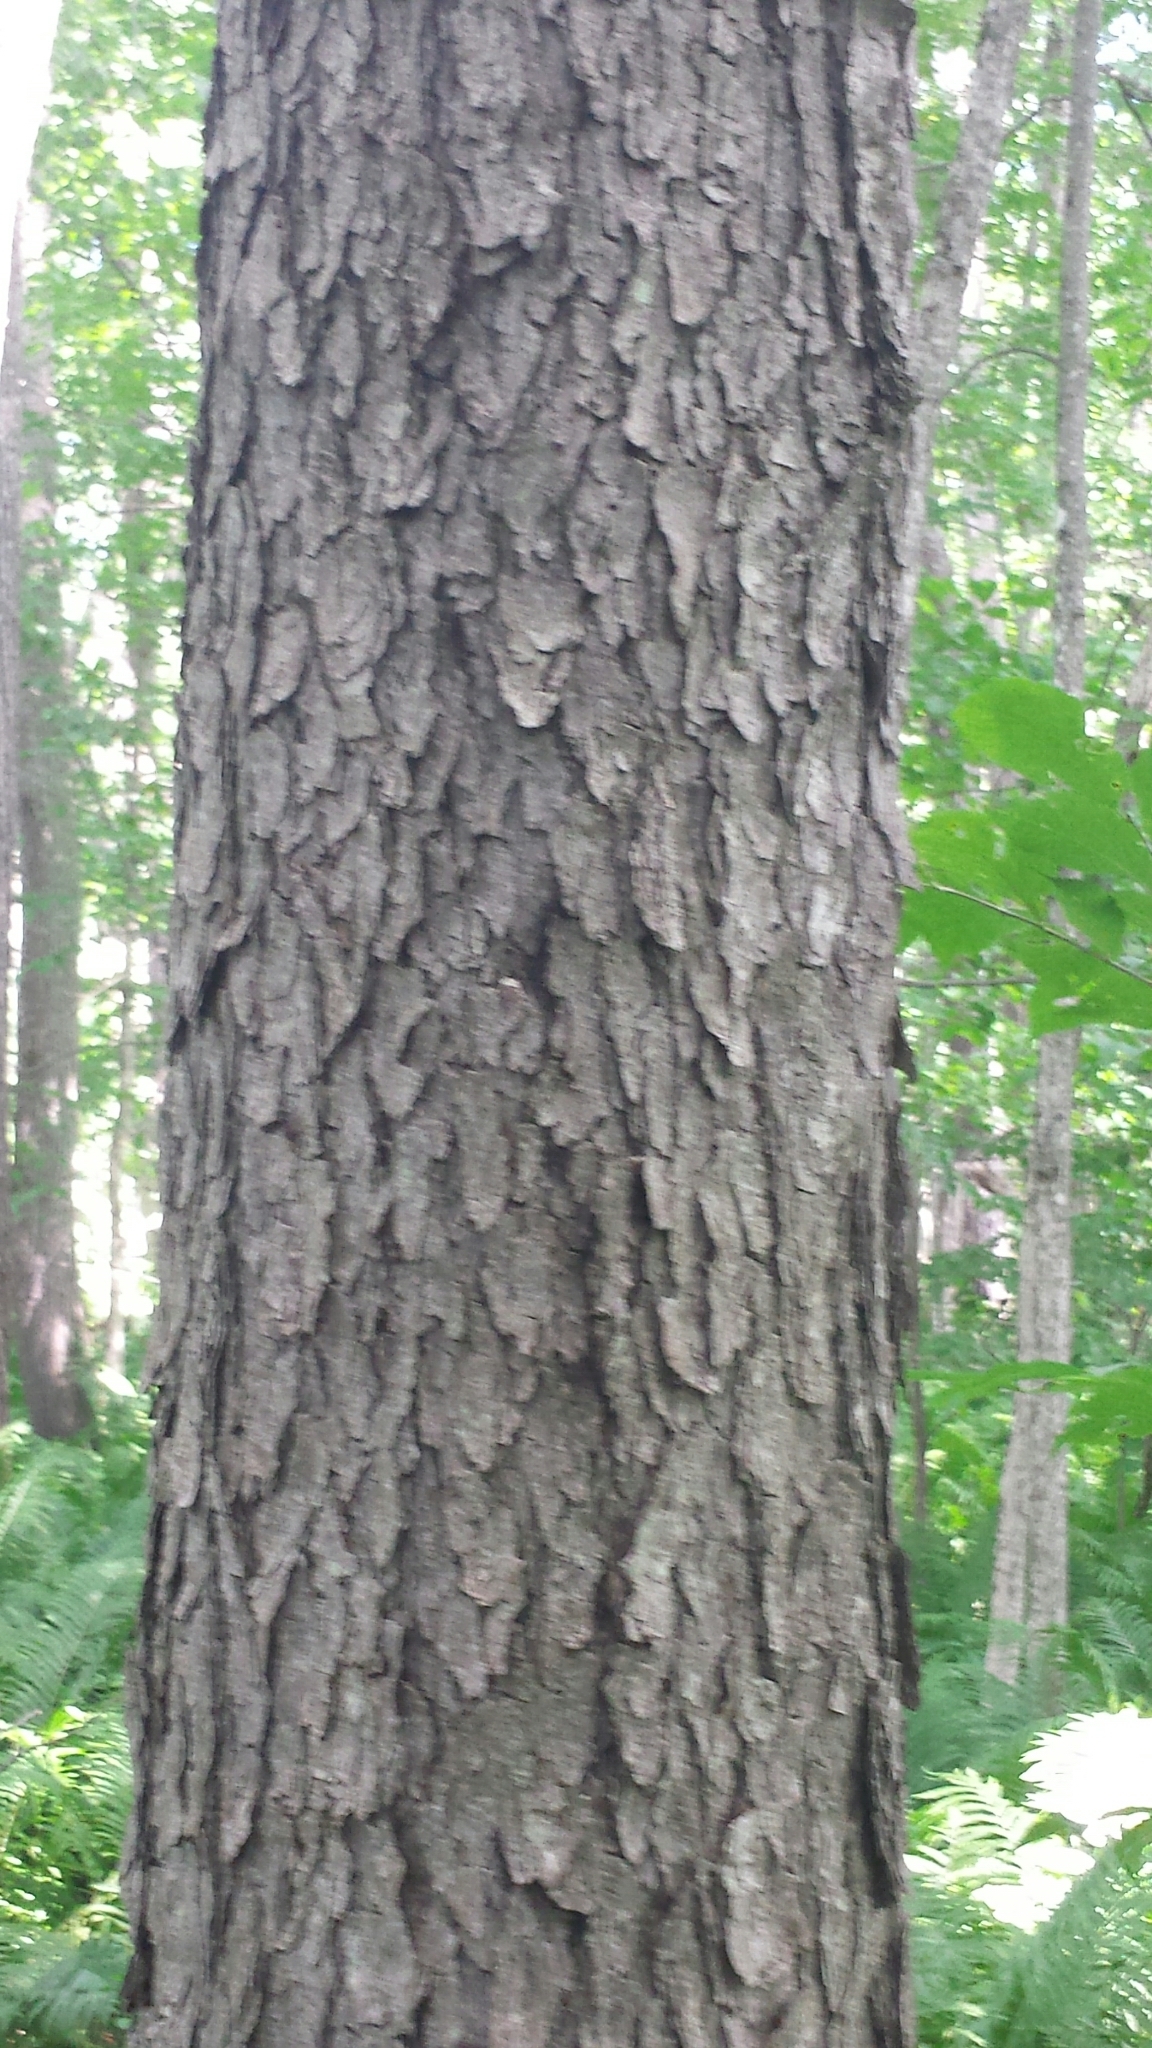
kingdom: Plantae
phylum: Tracheophyta
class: Magnoliopsida
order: Rosales
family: Rosaceae
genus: Prunus
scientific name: Prunus serotina
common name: Black cherry
